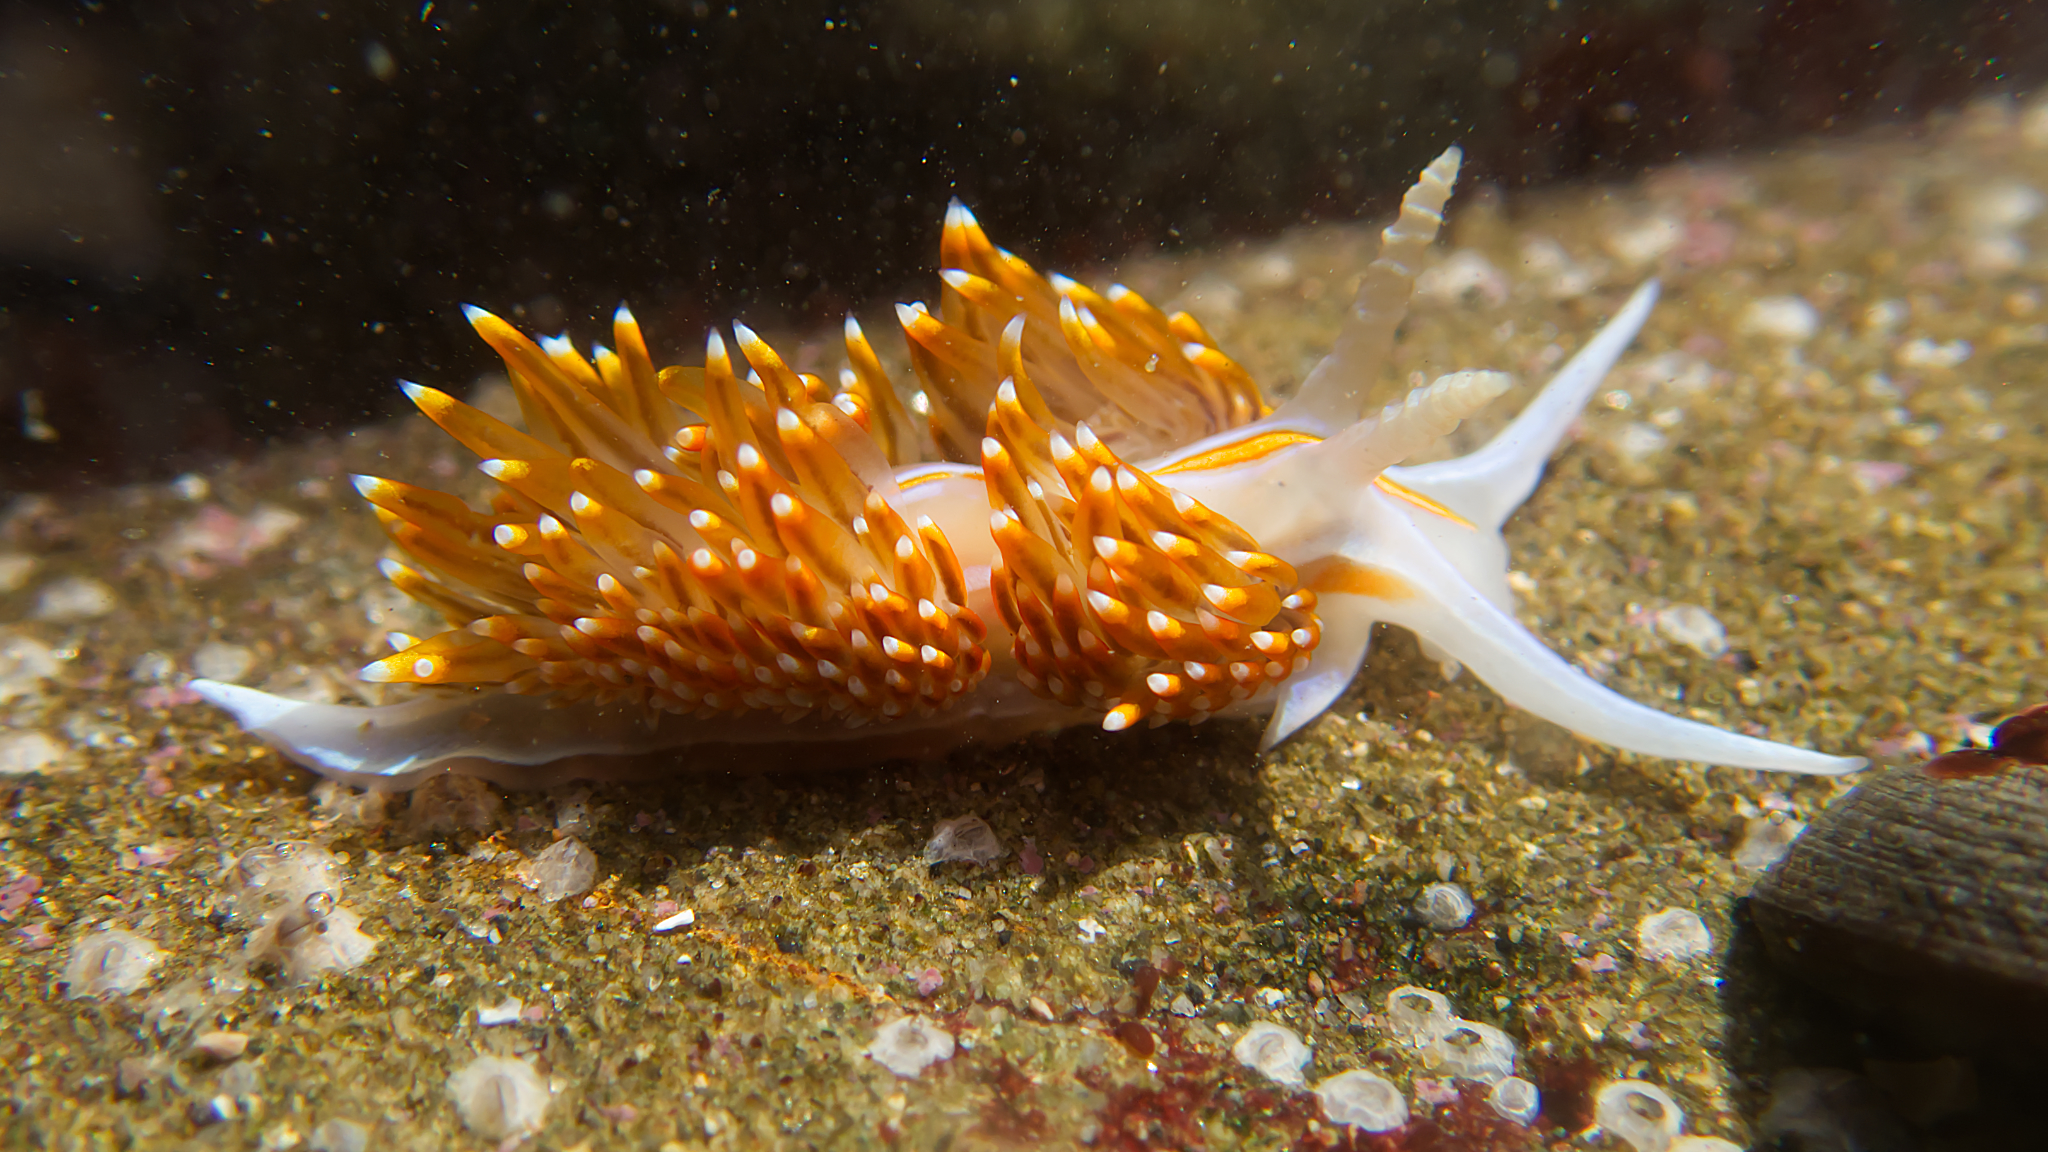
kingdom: Animalia
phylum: Mollusca
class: Gastropoda
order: Nudibranchia
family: Myrrhinidae
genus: Hermissenda
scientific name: Hermissenda opalescens
